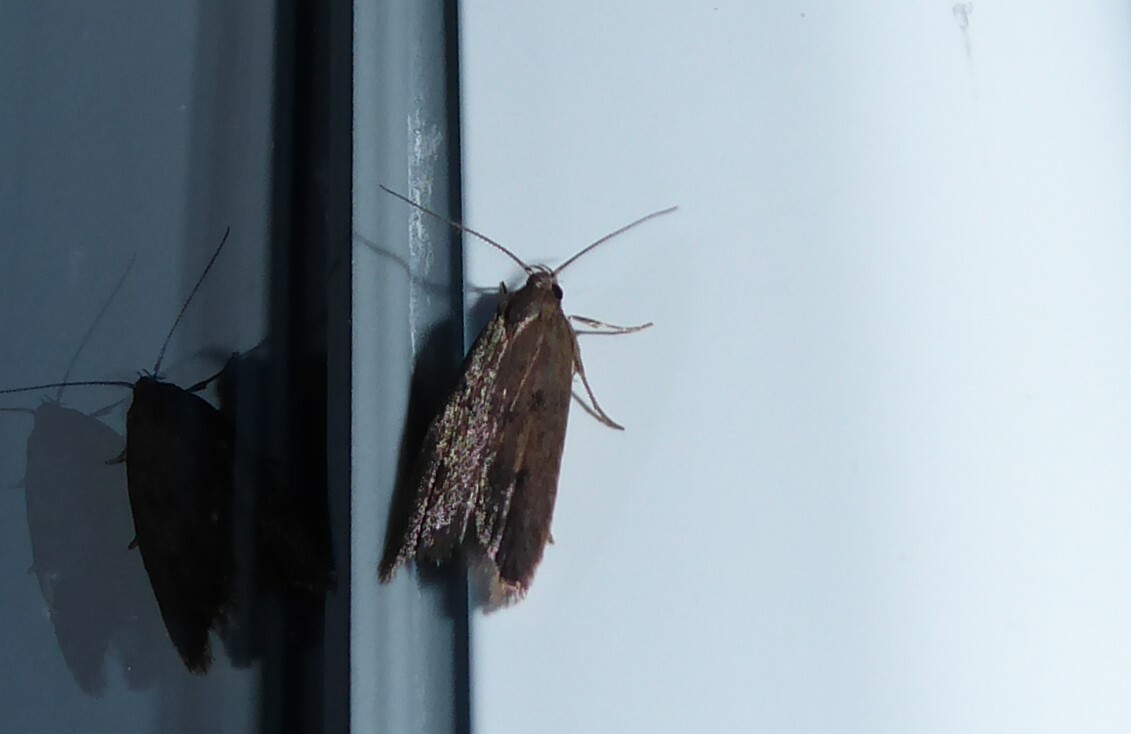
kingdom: Animalia
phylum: Arthropoda
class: Insecta
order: Lepidoptera
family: Oecophoridae
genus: Tachystola
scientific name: Tachystola acroxantha
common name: Ruddy streak
